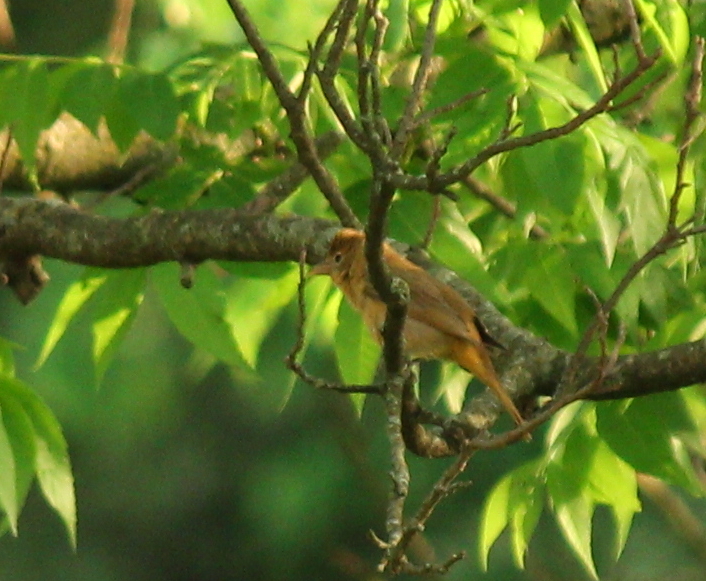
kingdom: Animalia
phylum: Chordata
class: Aves
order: Passeriformes
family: Cardinalidae
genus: Piranga
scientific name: Piranga rubra
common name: Summer tanager
